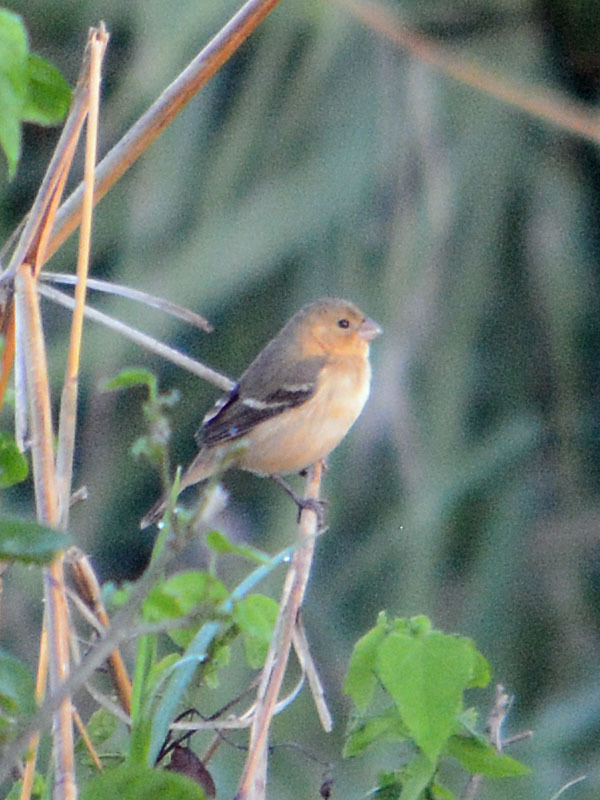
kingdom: Animalia
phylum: Chordata
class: Aves
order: Passeriformes
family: Thraupidae
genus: Sporophila
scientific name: Sporophila morelleti
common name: Morelet's seedeater
